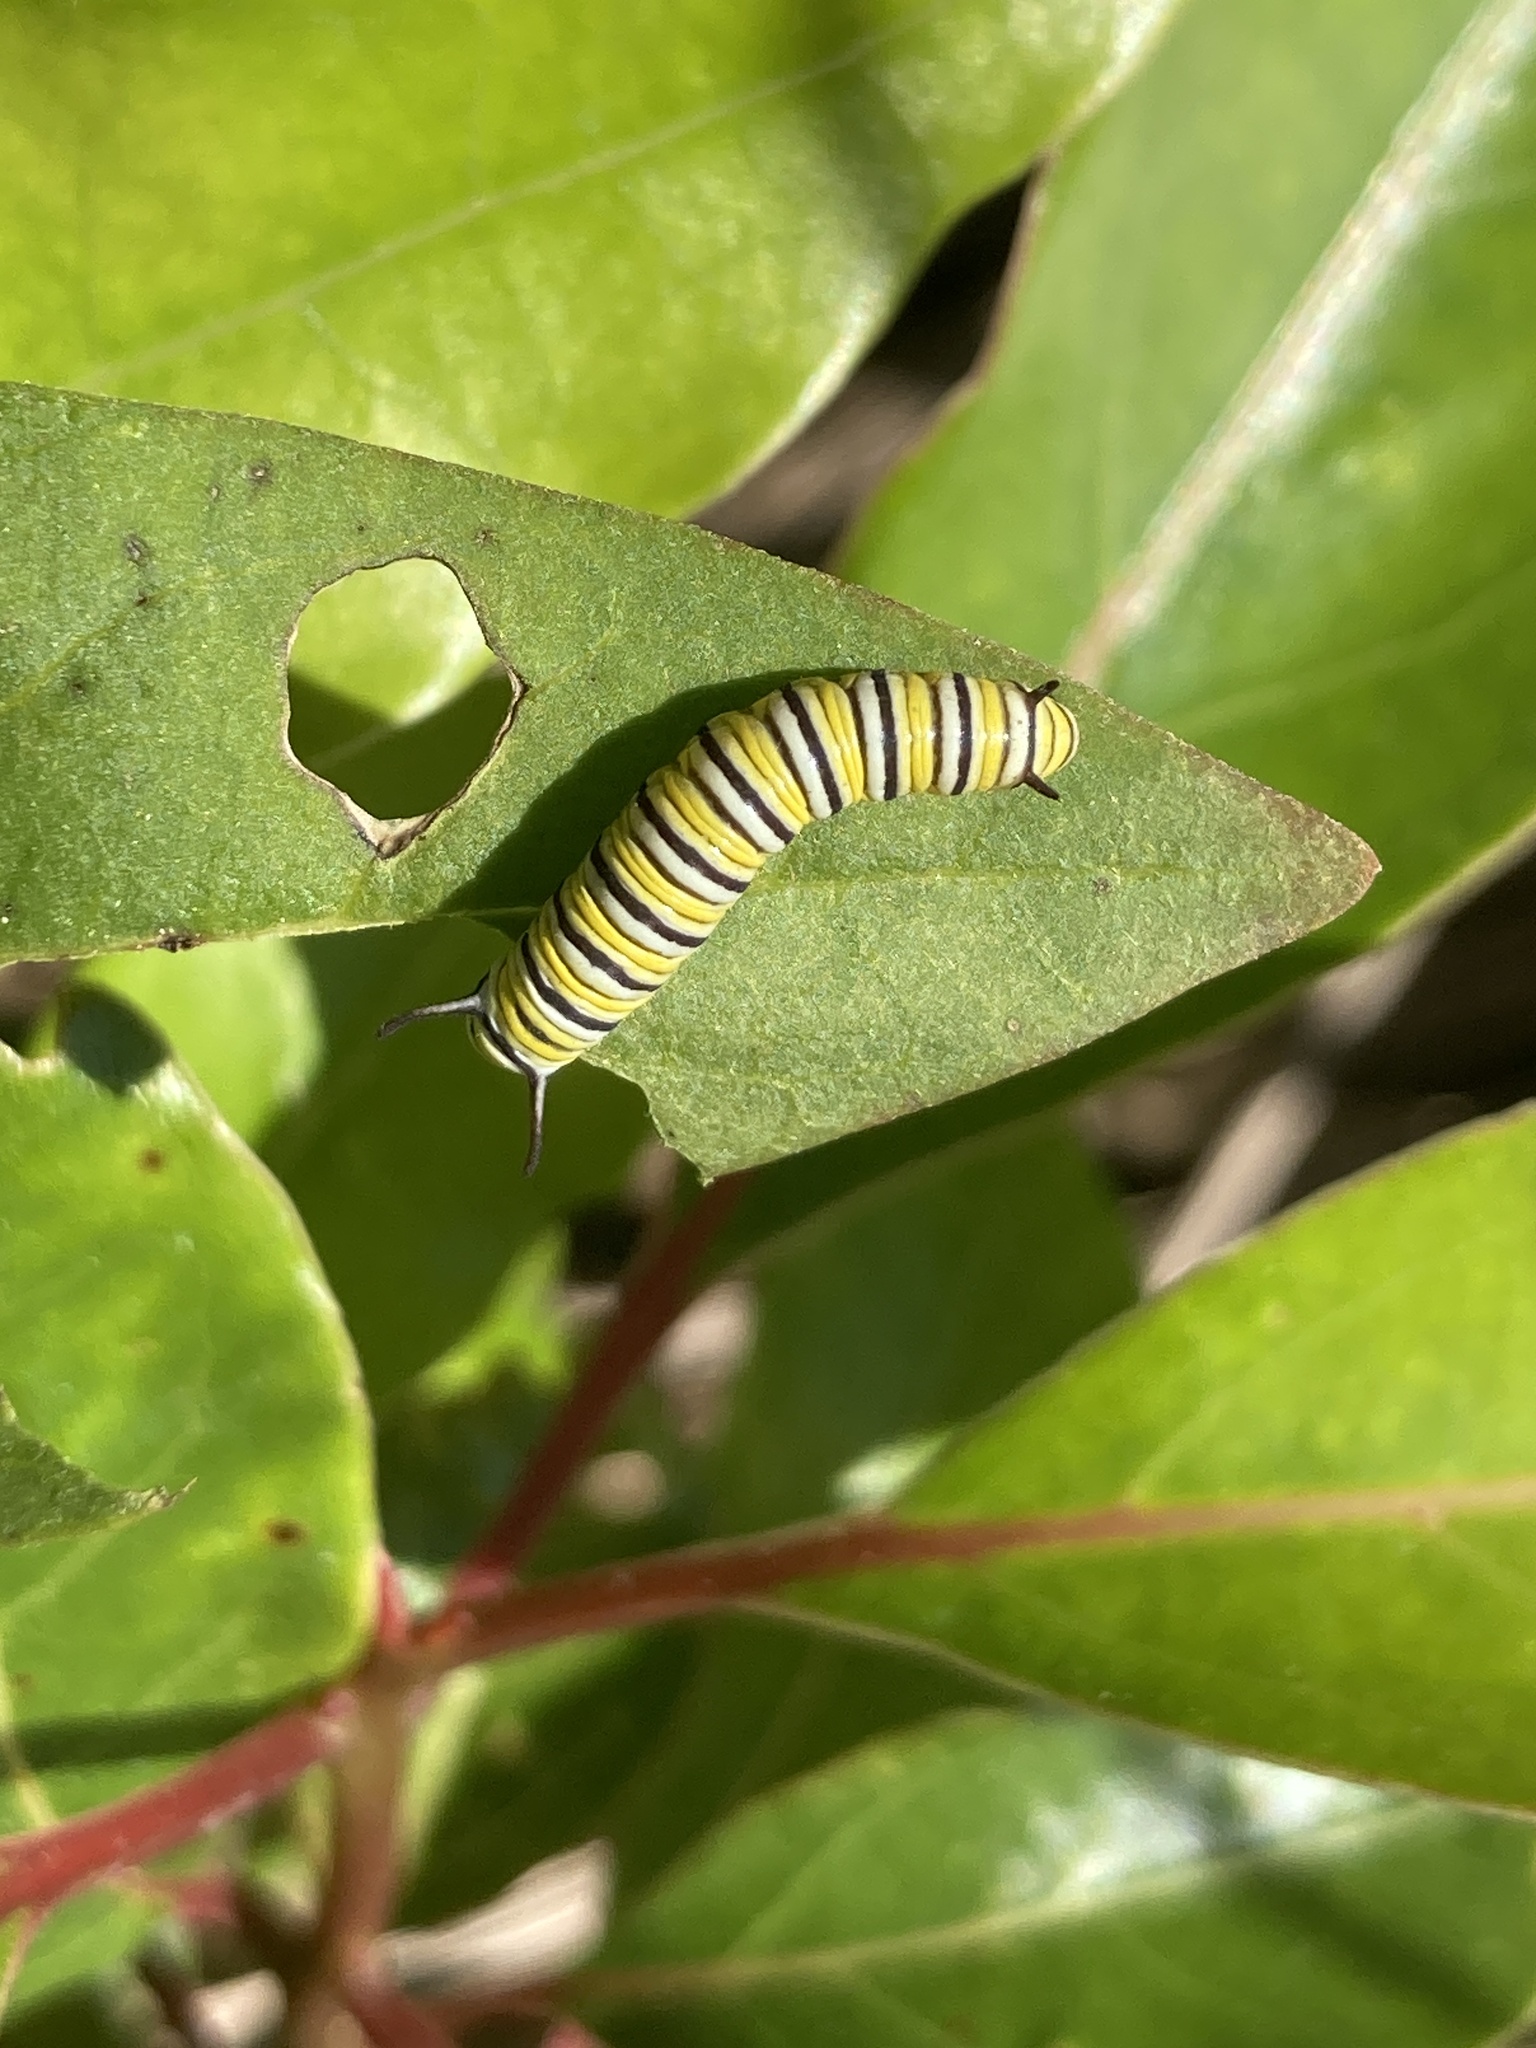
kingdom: Animalia
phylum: Arthropoda
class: Insecta
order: Lepidoptera
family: Nymphalidae
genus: Danaus
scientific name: Danaus plexippus
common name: Monarch
